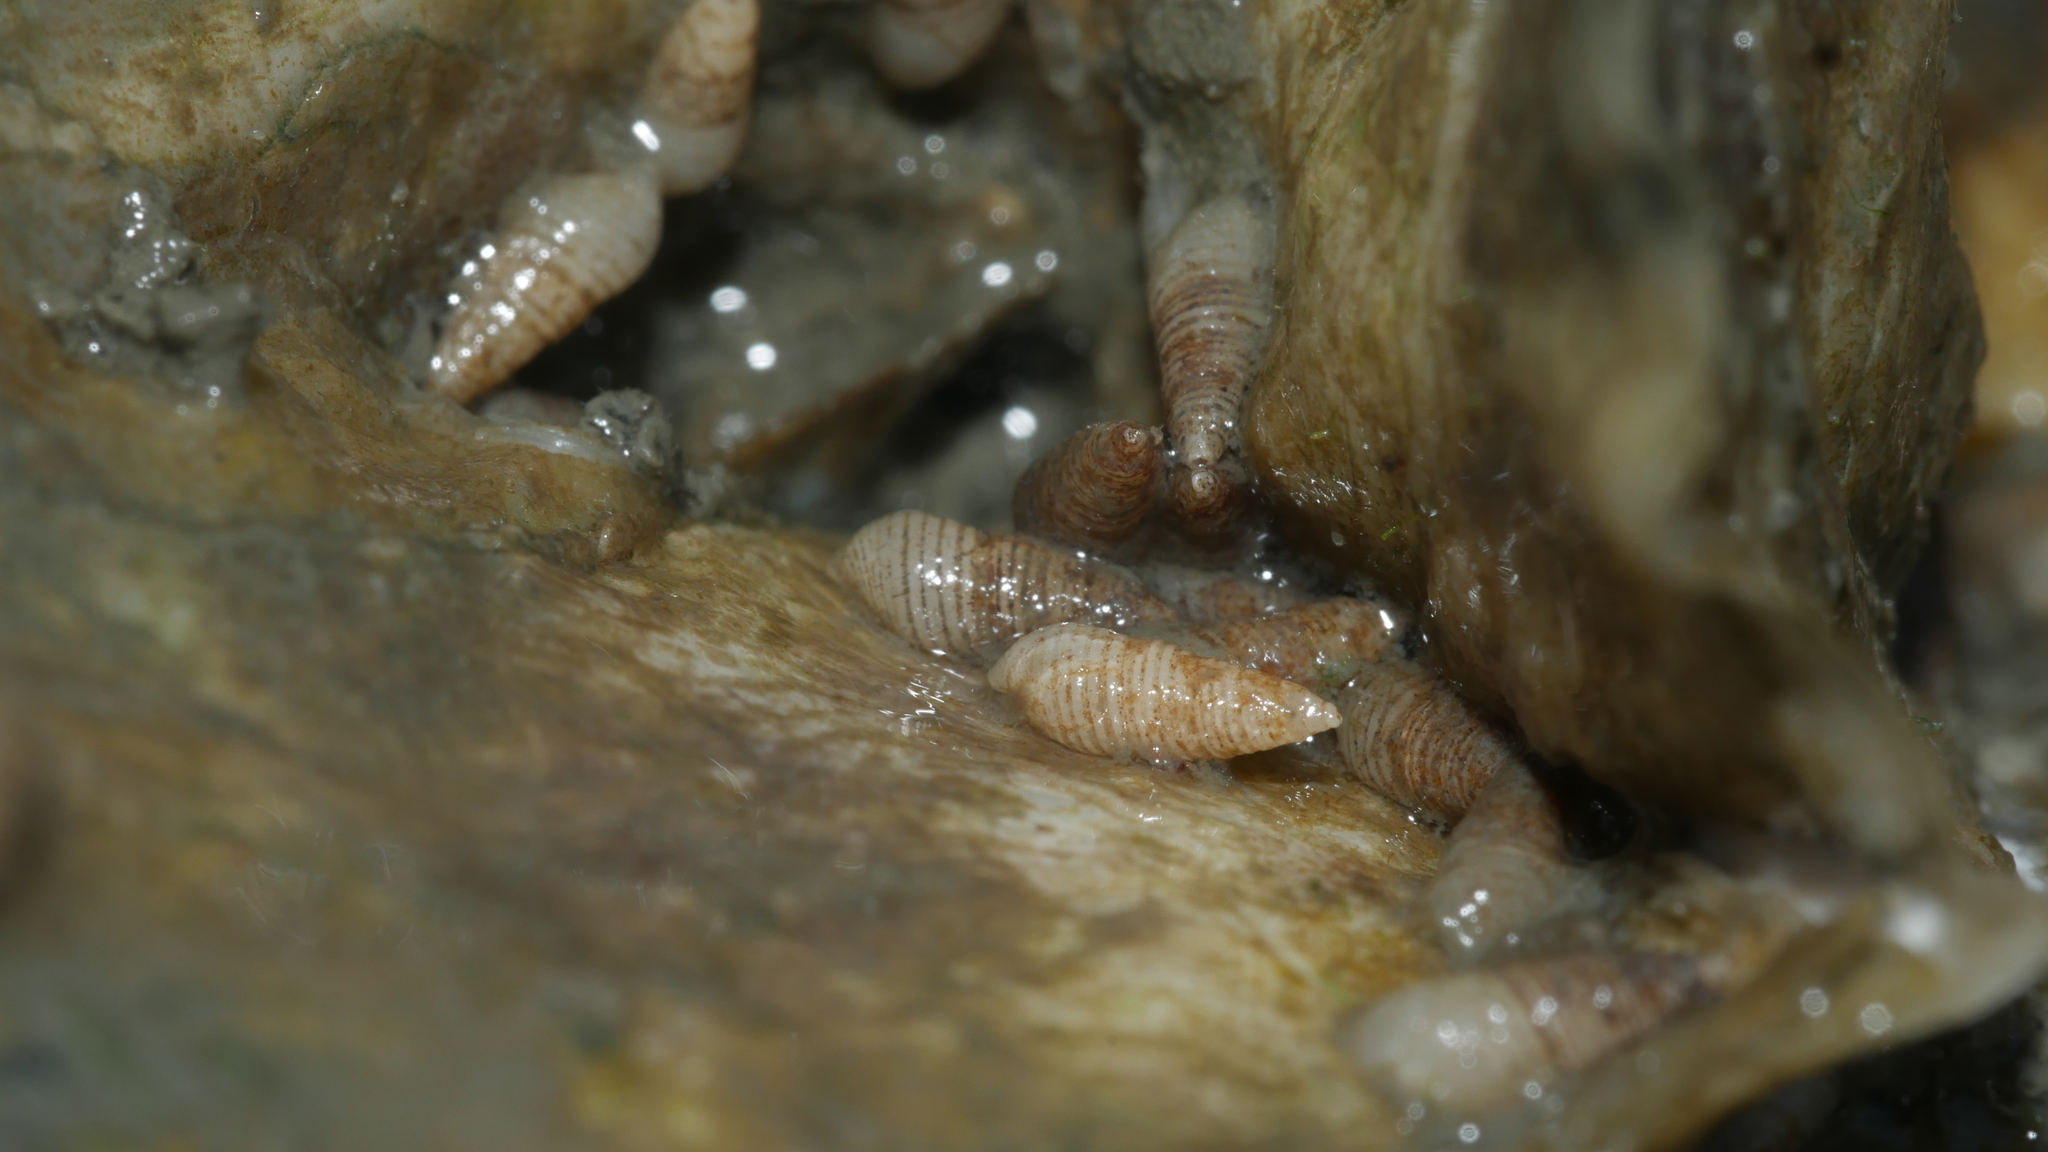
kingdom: Animalia
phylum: Mollusca
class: Gastropoda
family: Pyramidellidae
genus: Boonea
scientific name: Boonea impressa
